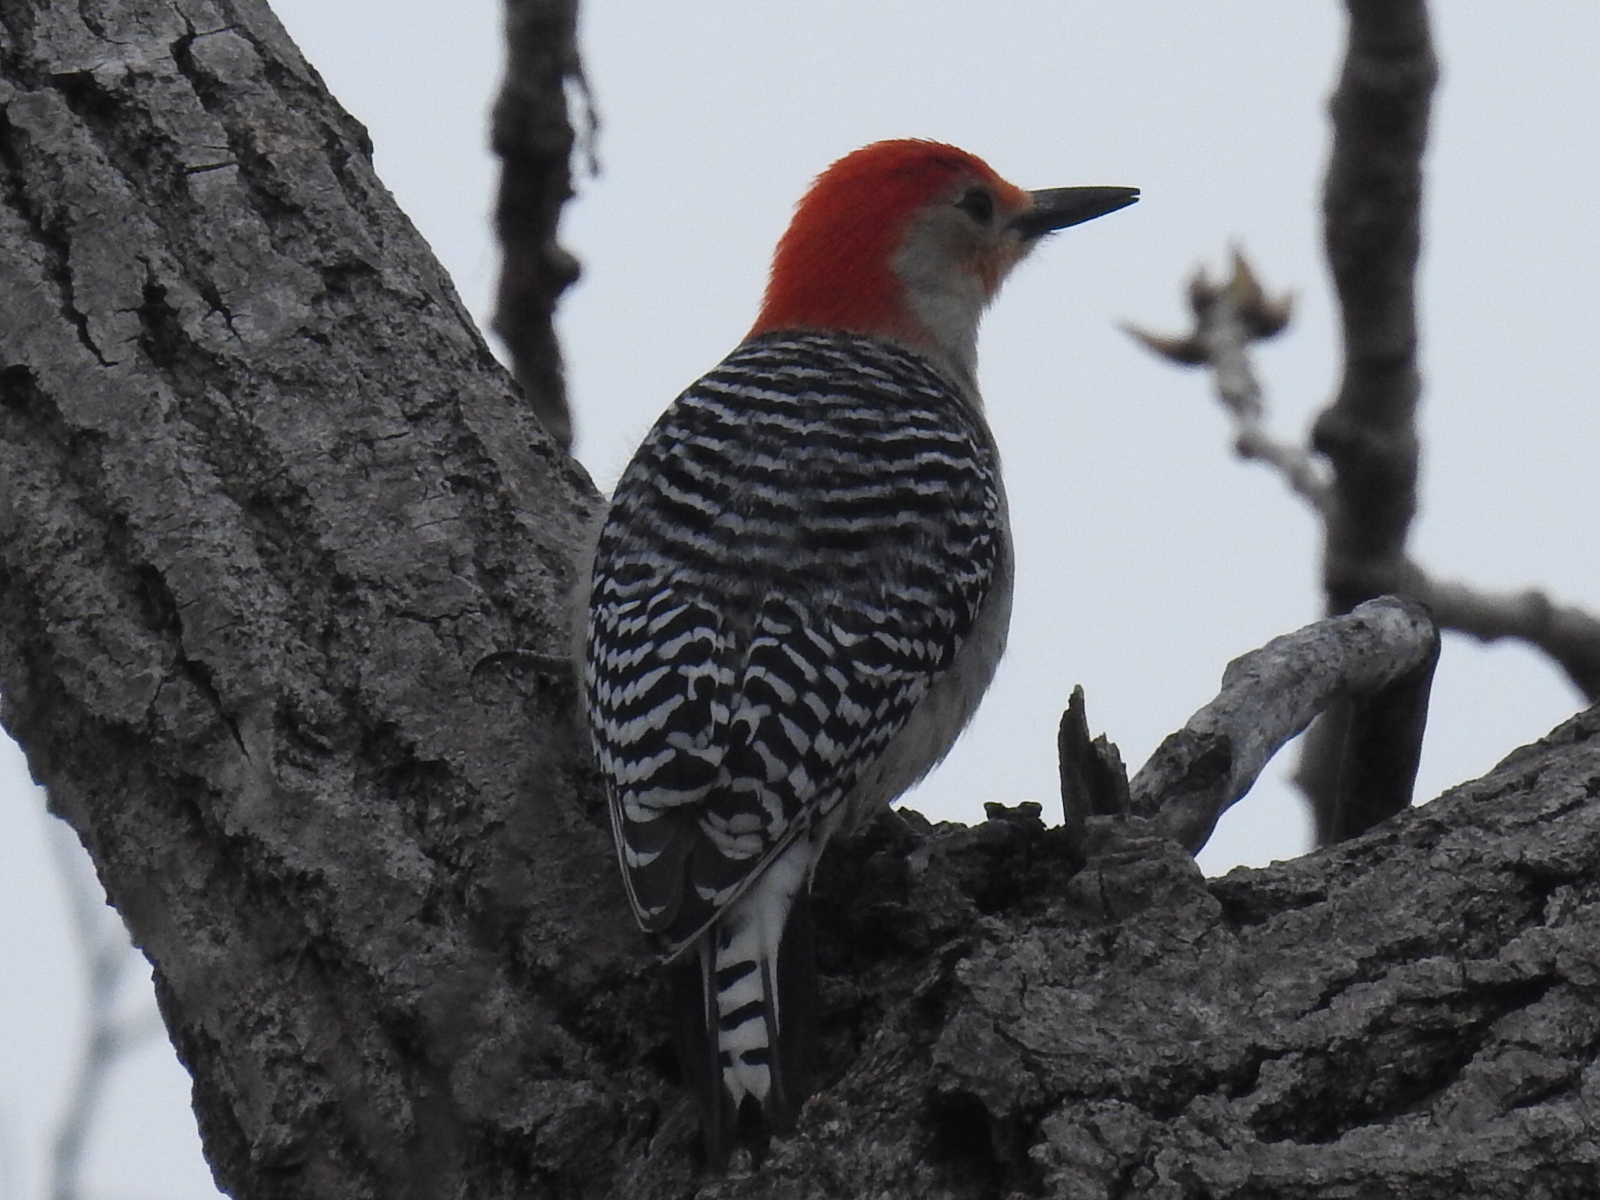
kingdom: Animalia
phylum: Chordata
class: Aves
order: Piciformes
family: Picidae
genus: Melanerpes
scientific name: Melanerpes carolinus
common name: Red-bellied woodpecker
